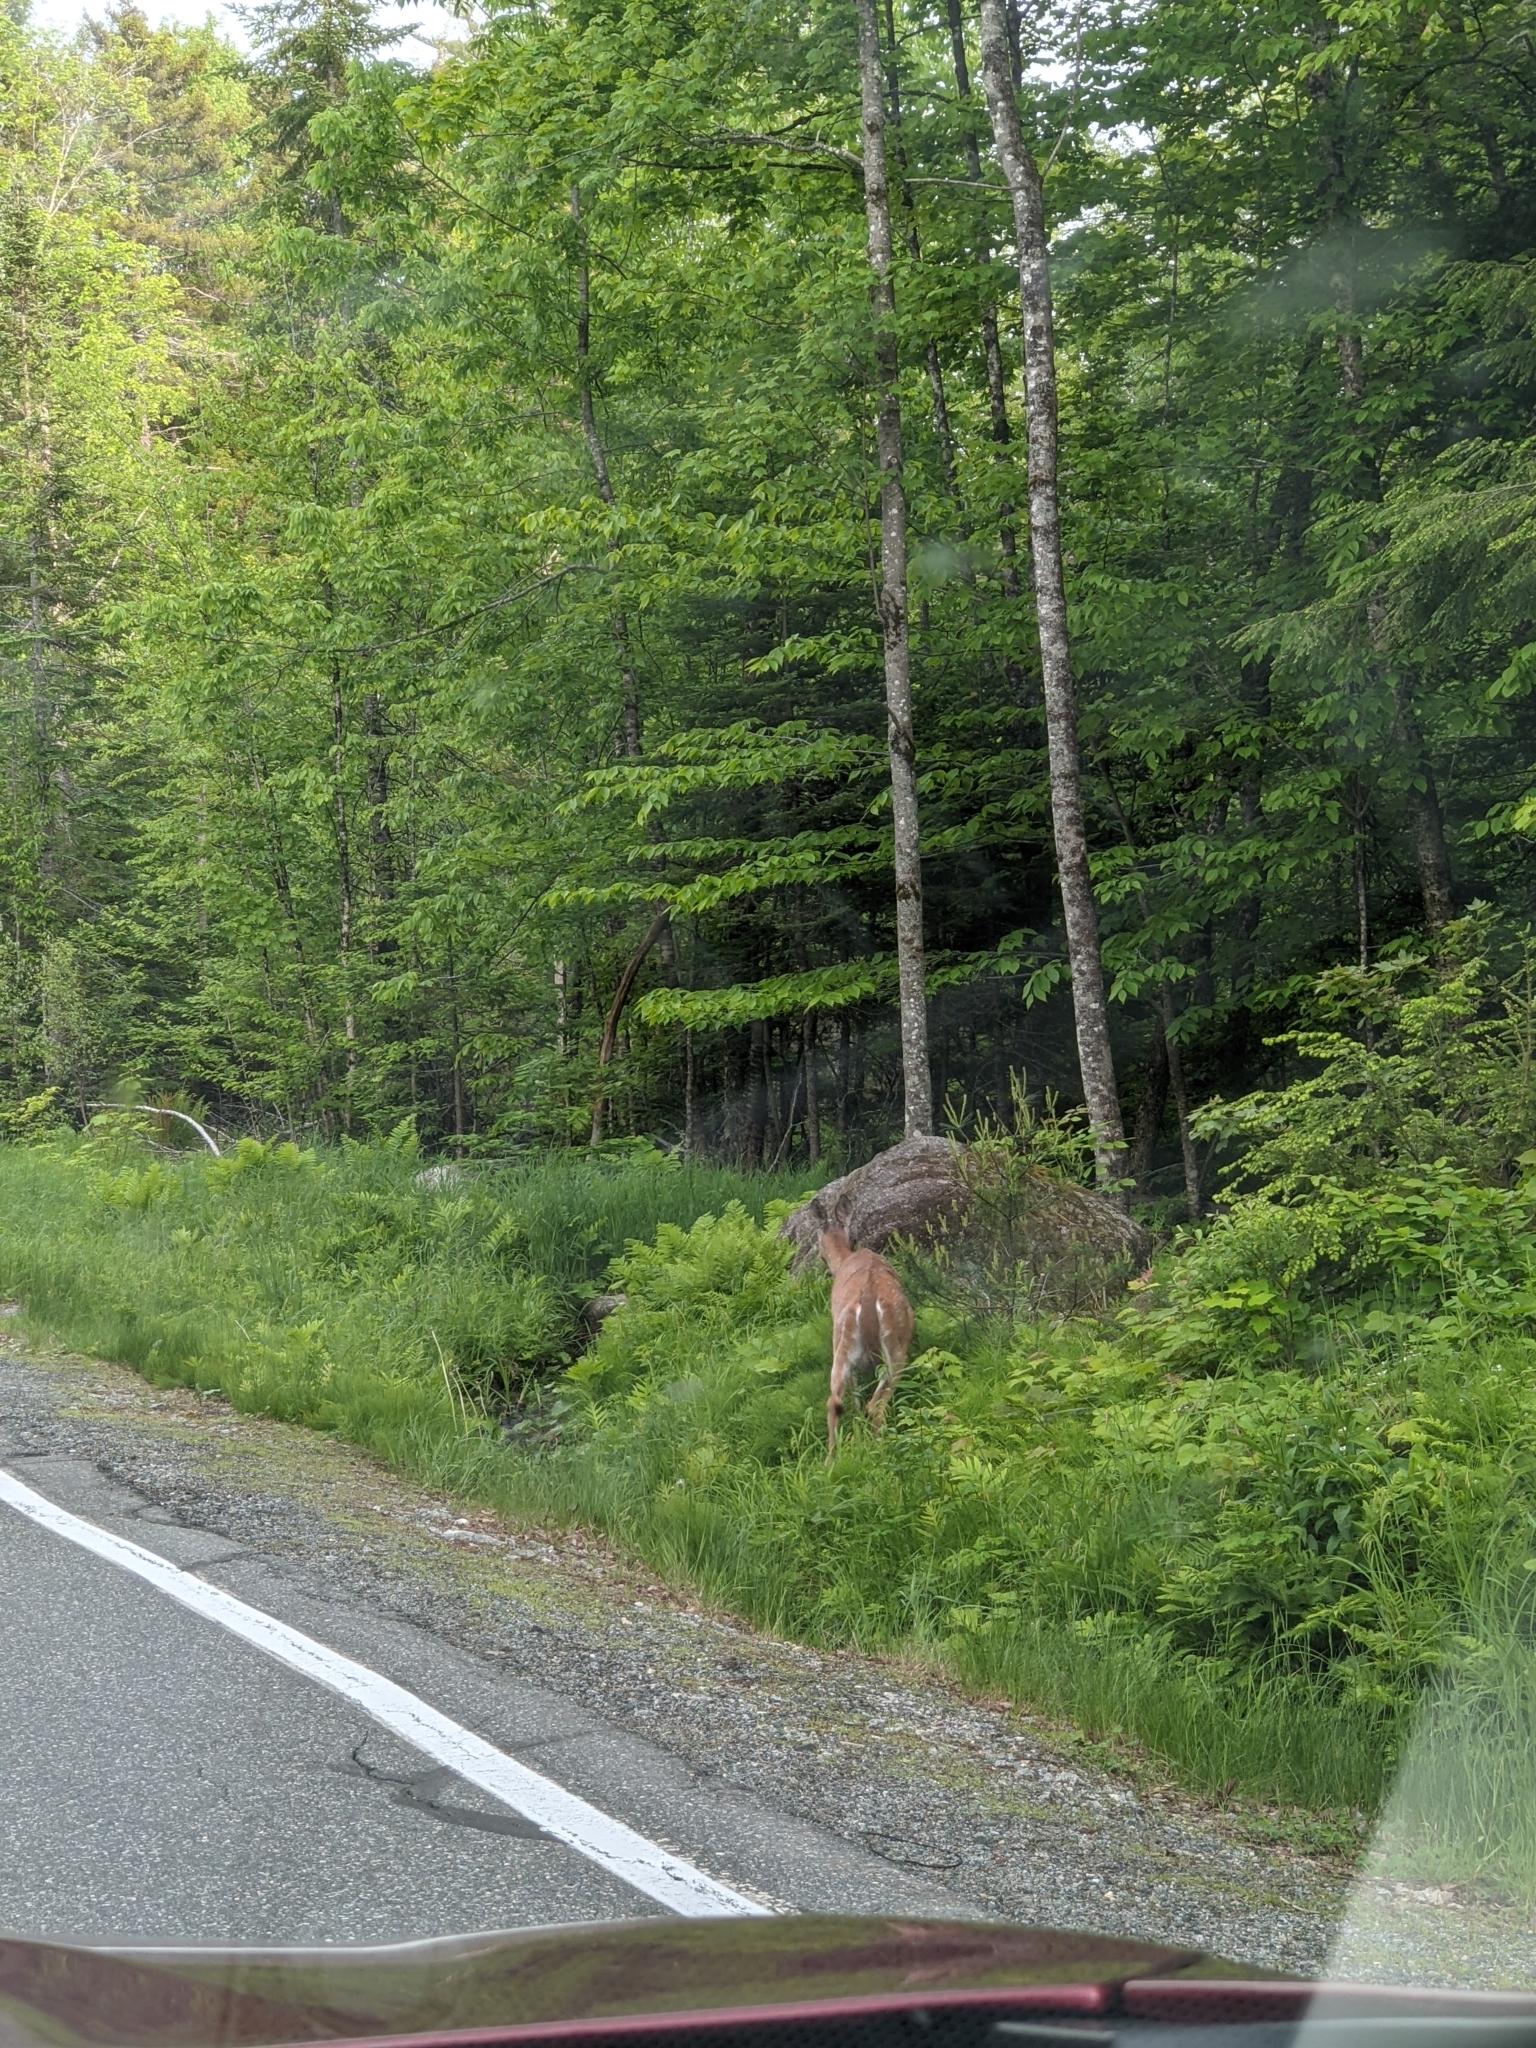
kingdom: Animalia
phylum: Chordata
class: Mammalia
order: Artiodactyla
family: Cervidae
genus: Odocoileus
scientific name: Odocoileus virginianus
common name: White-tailed deer
